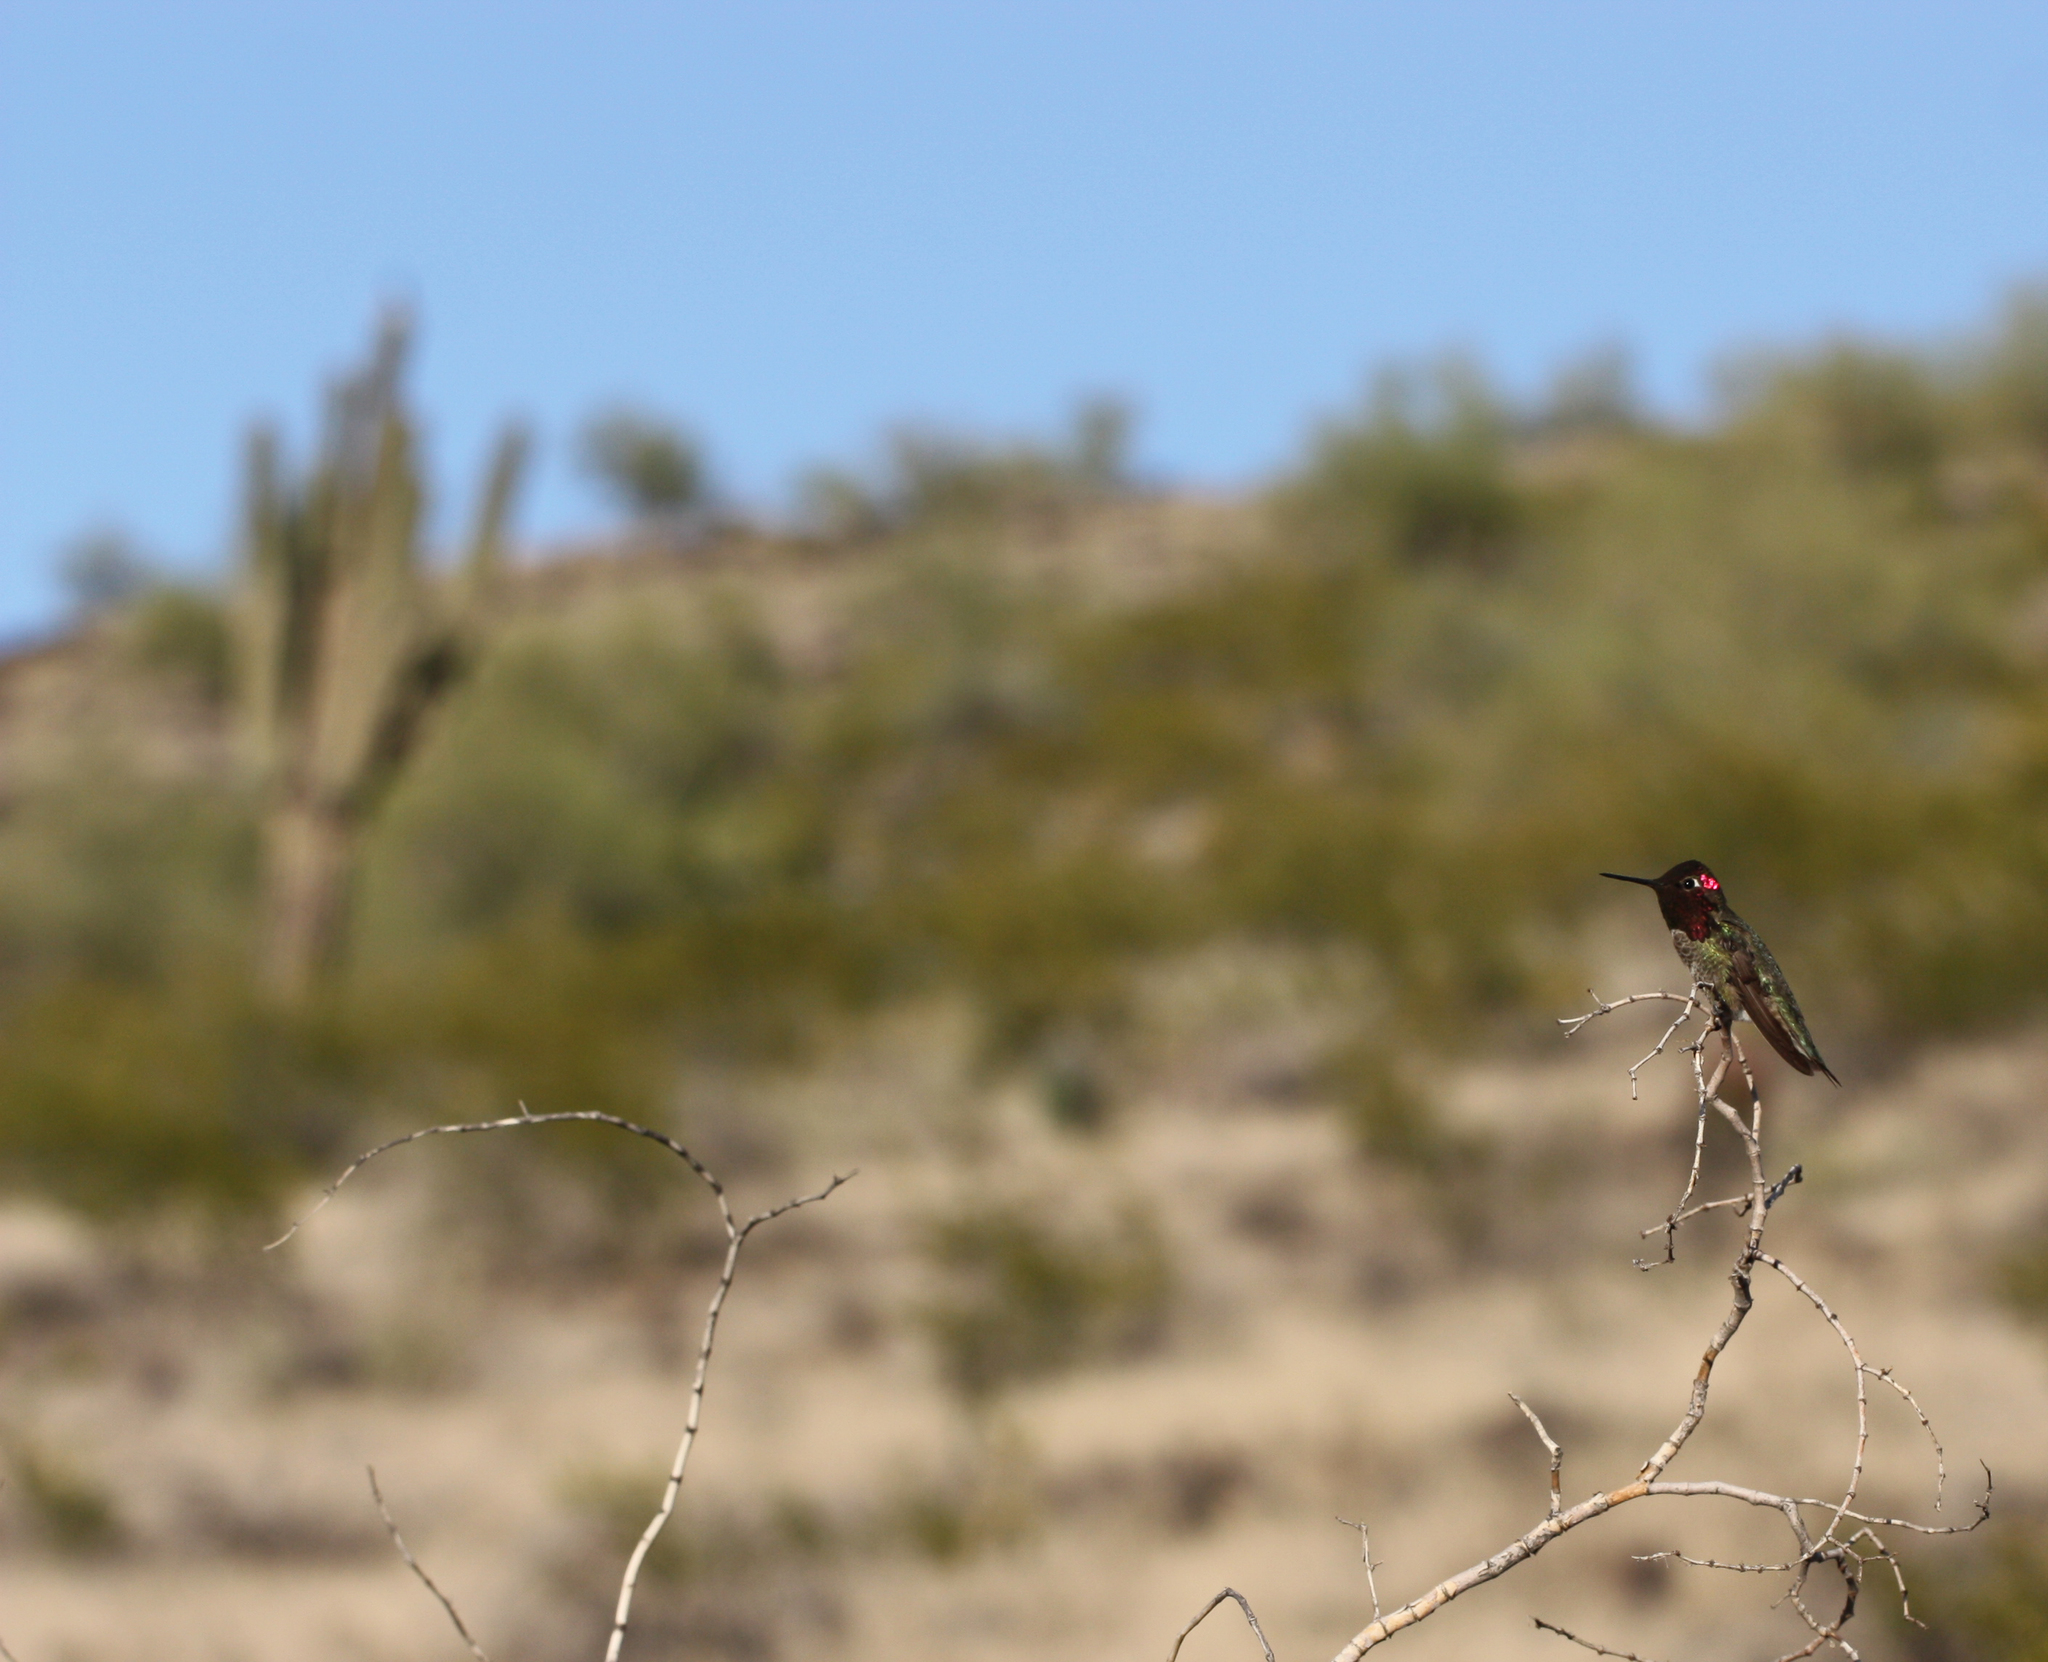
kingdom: Animalia
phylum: Chordata
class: Aves
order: Apodiformes
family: Trochilidae
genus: Calypte
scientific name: Calypte anna
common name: Anna's hummingbird
